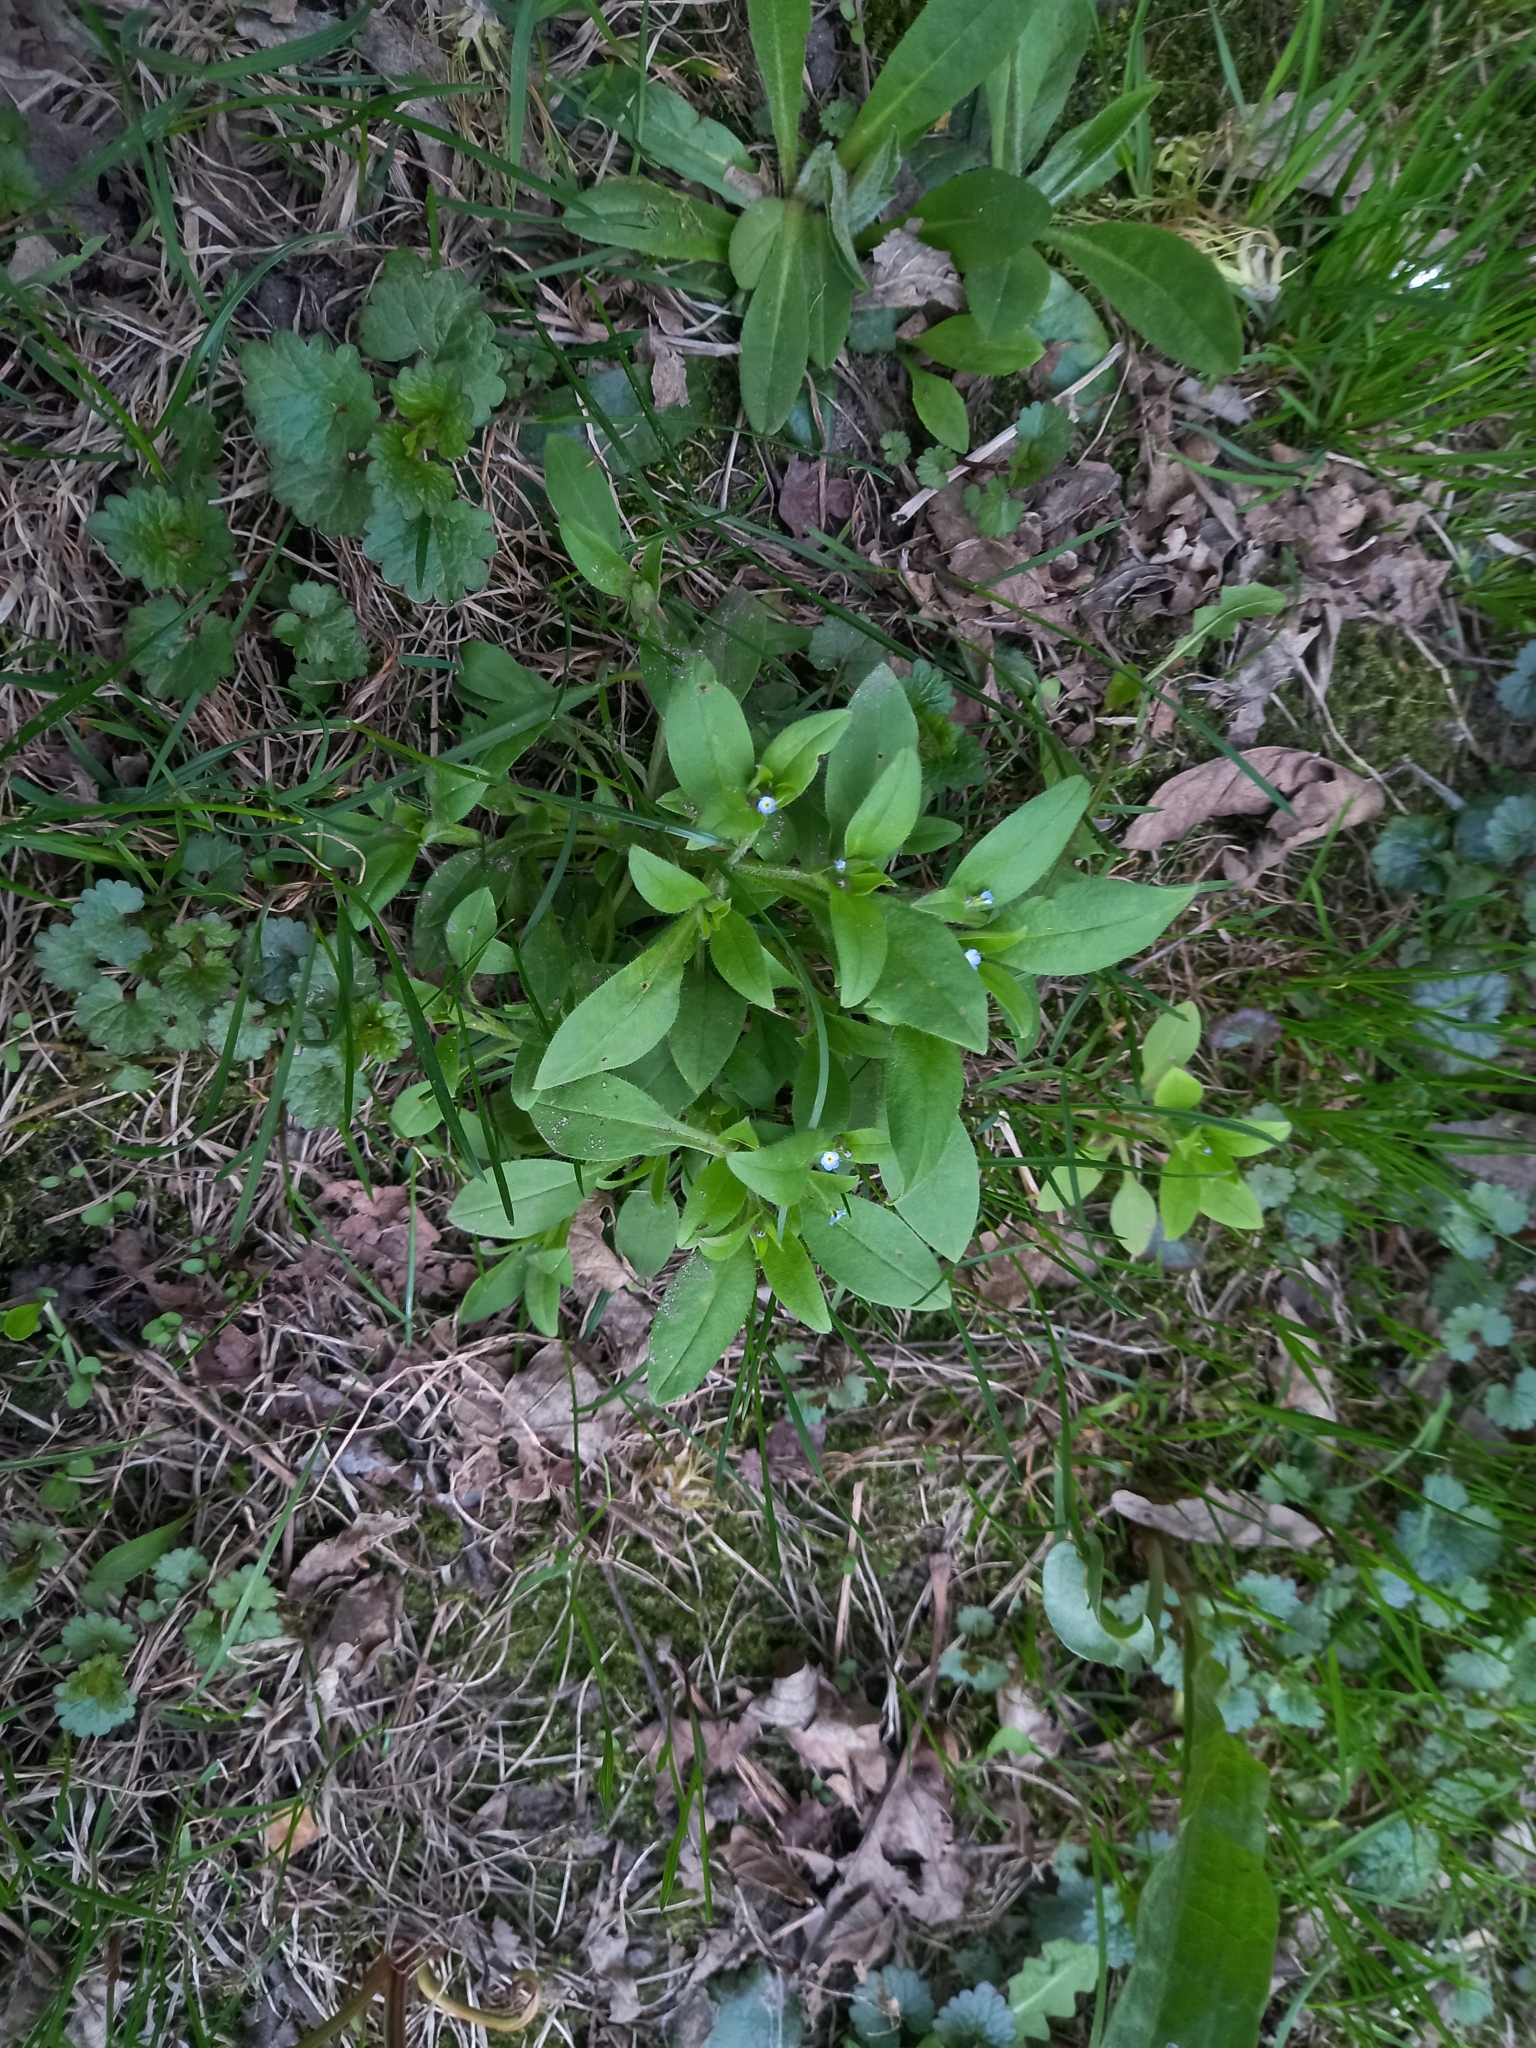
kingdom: Plantae
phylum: Tracheophyta
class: Magnoliopsida
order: Boraginales
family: Boraginaceae
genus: Myosotis
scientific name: Myosotis sparsiflora
